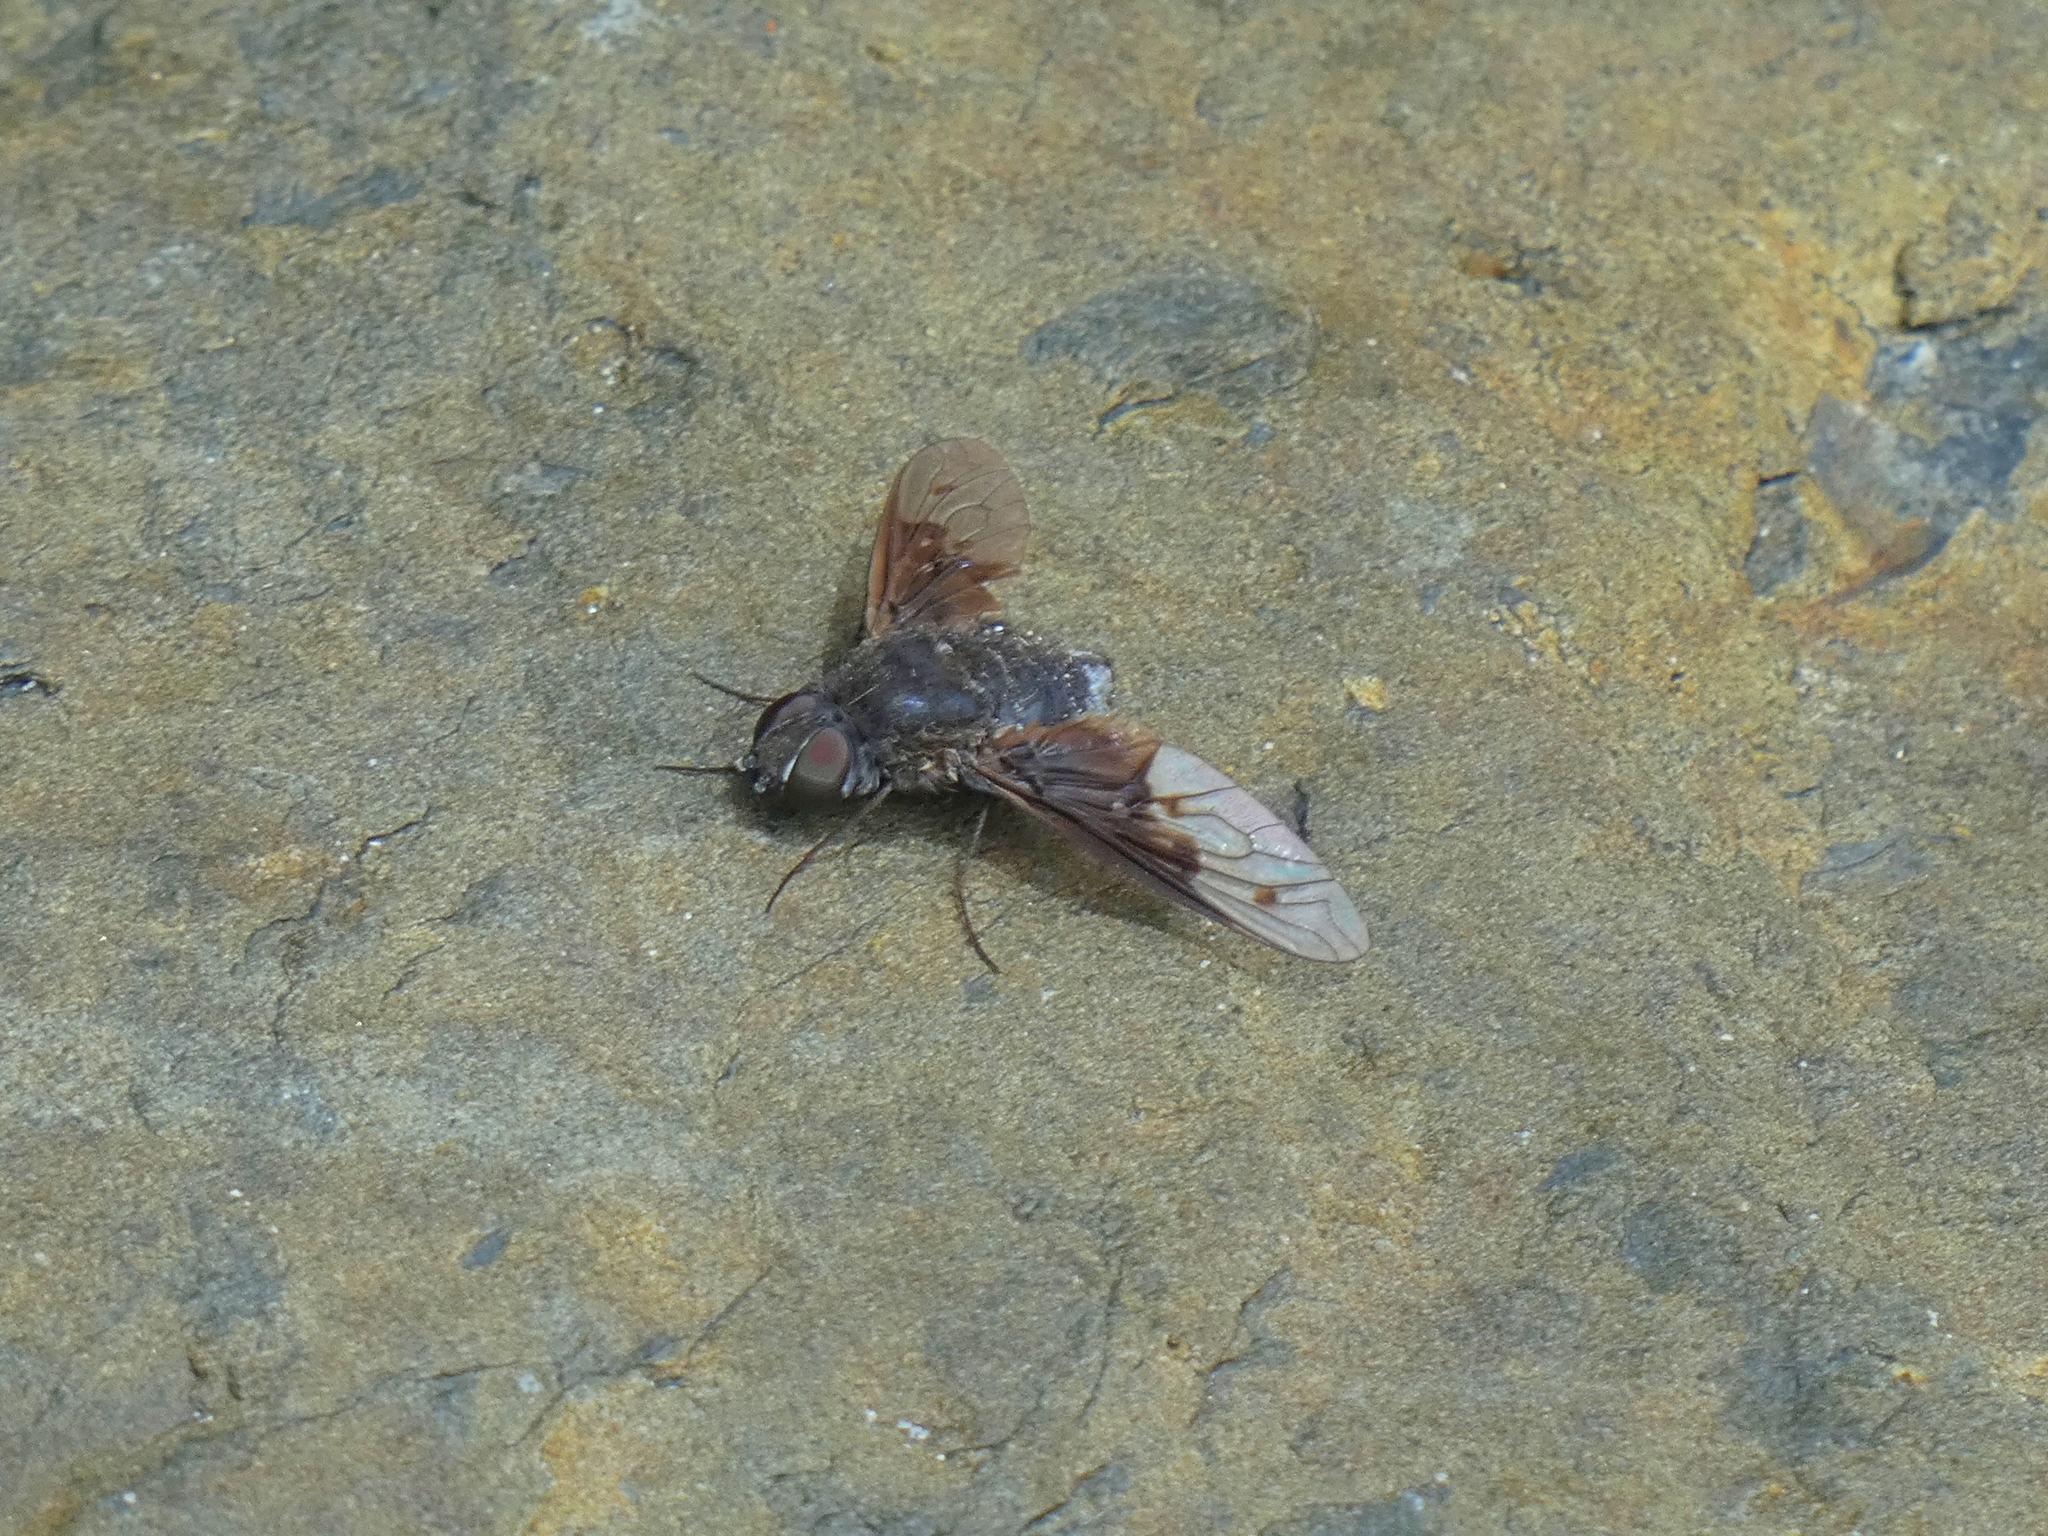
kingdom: Animalia
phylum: Arthropoda
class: Insecta
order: Diptera
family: Bombyliidae
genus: Anthrax
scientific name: Anthrax incomptus
